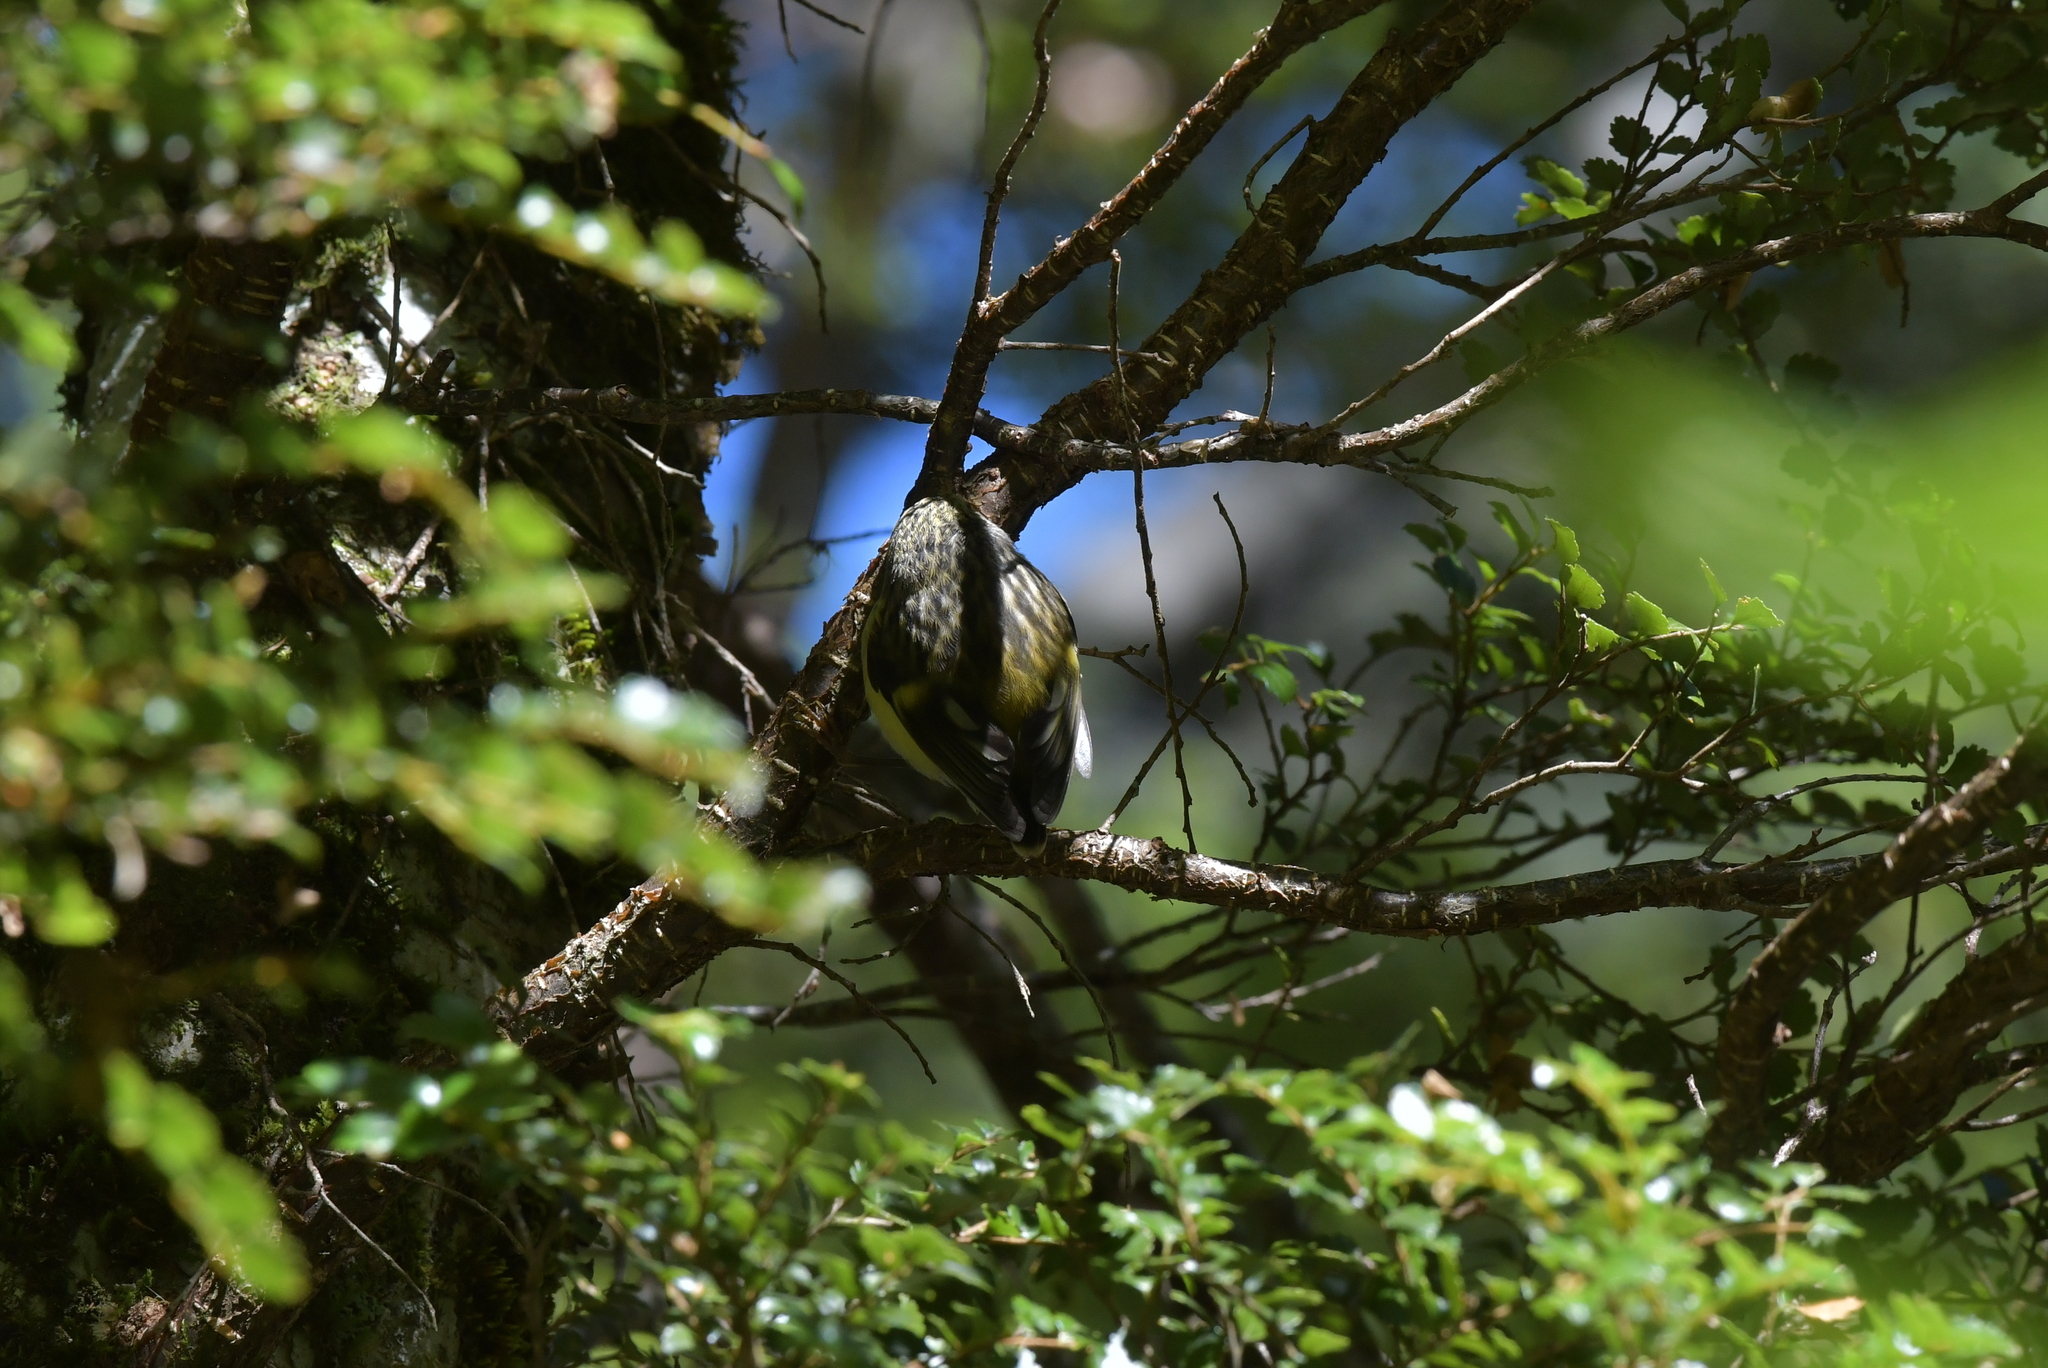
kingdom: Animalia
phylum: Chordata
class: Aves
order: Passeriformes
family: Acanthisittidae
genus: Acanthisitta
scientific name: Acanthisitta chloris
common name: Rifleman
